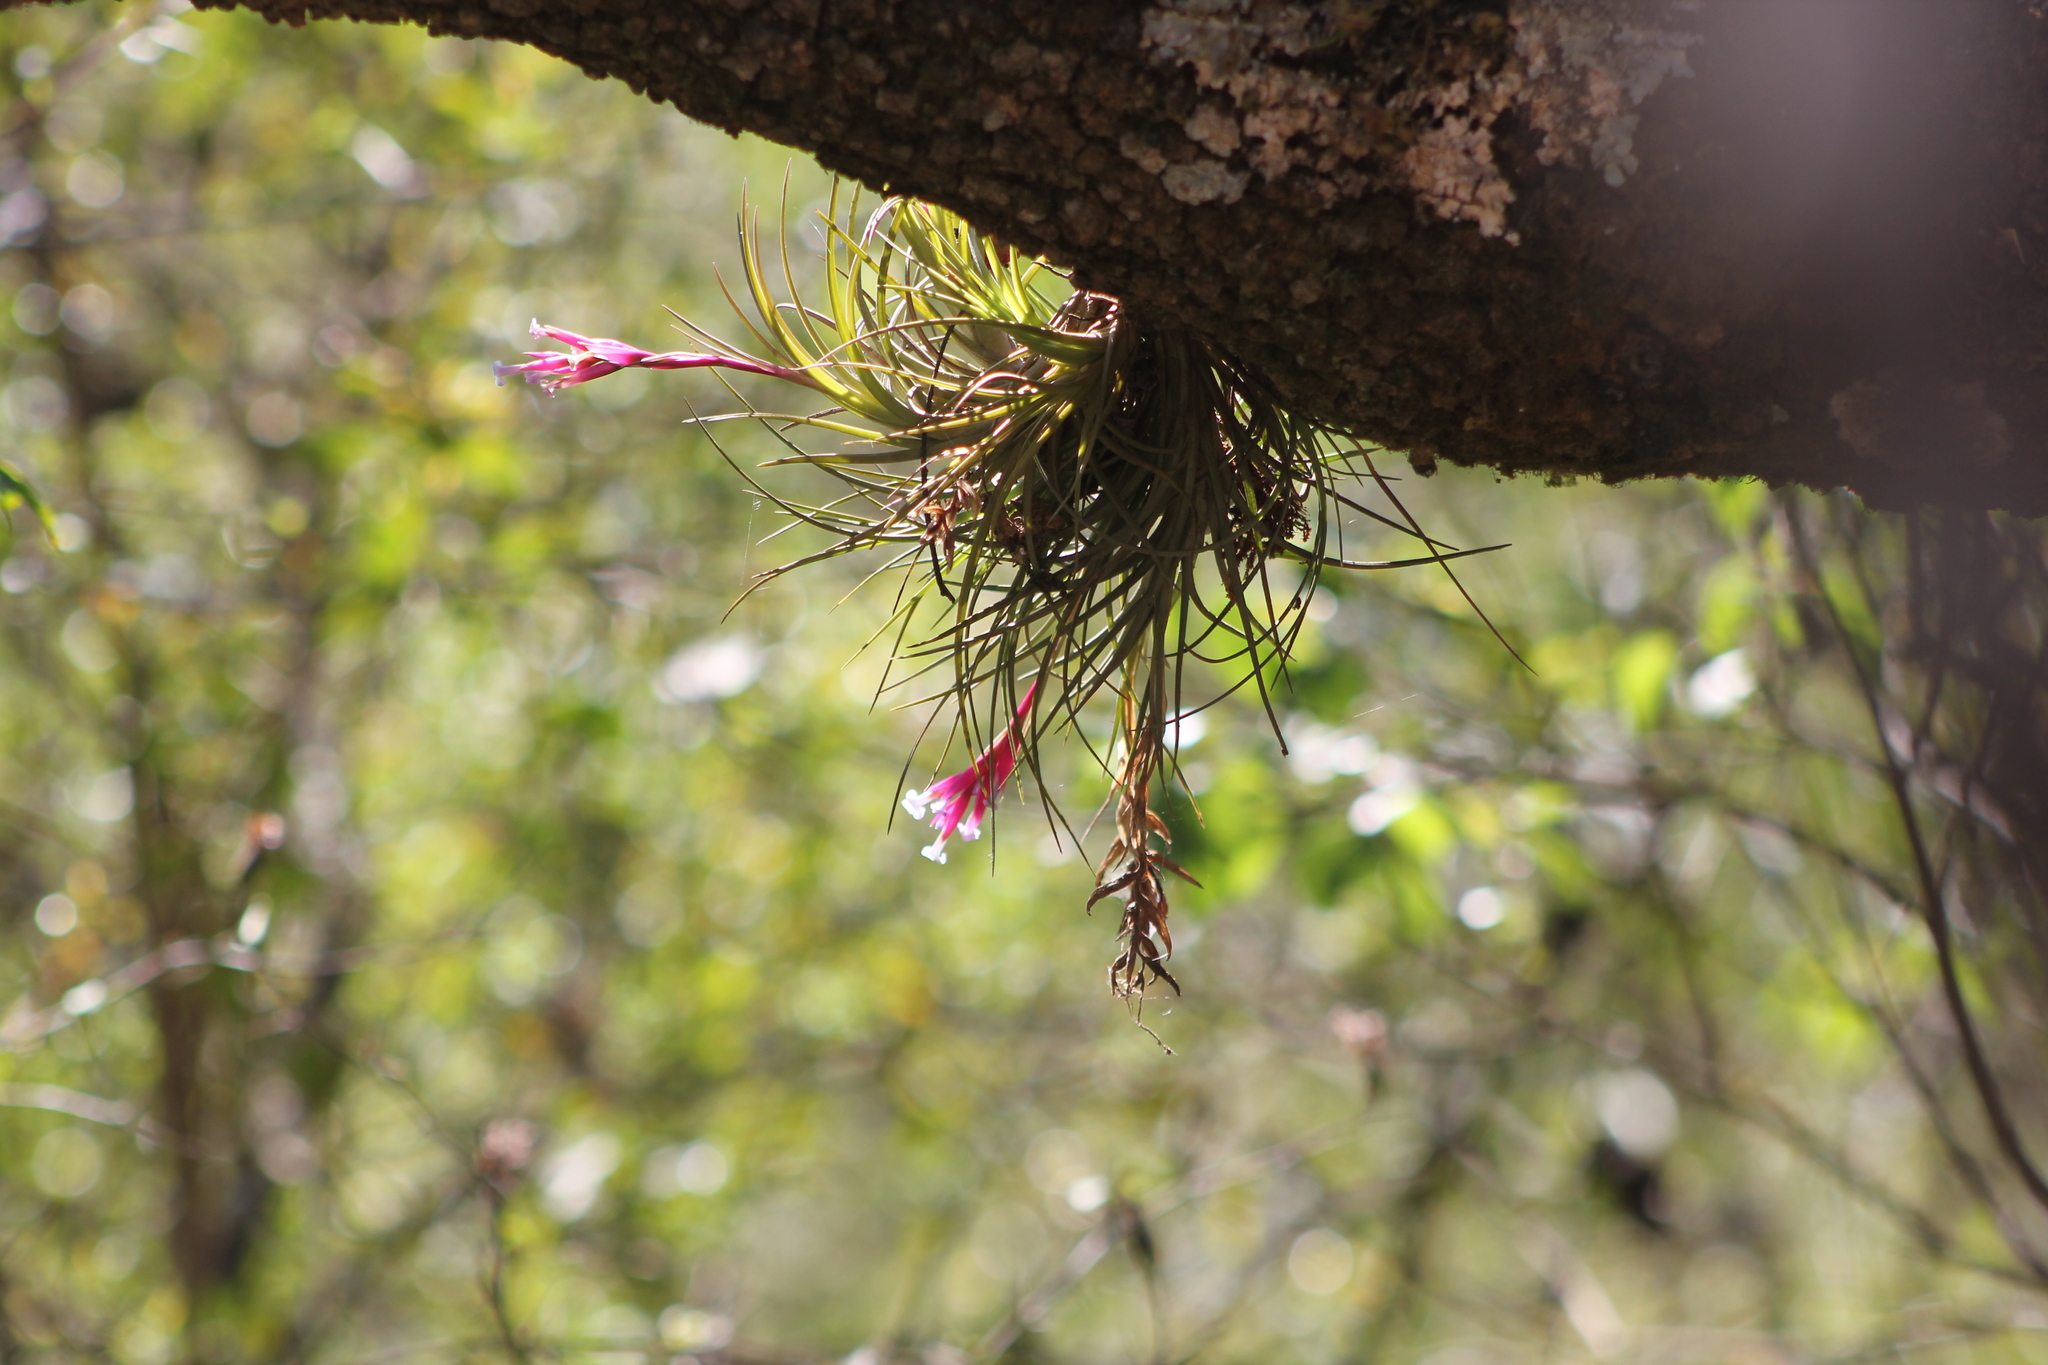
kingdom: Plantae
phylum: Tracheophyta
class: Liliopsida
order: Poales
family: Bromeliaceae
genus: Tillandsia
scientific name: Tillandsia tenuifolia
